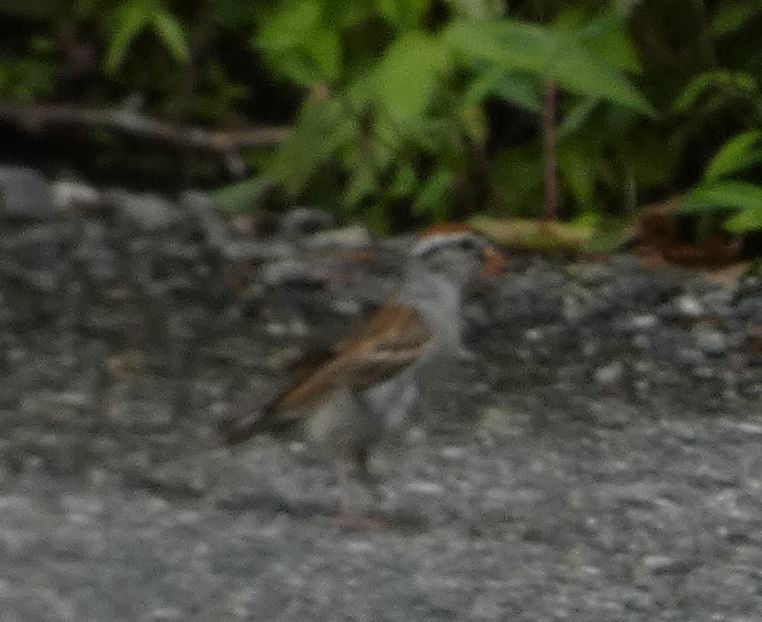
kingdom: Animalia
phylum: Chordata
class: Aves
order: Passeriformes
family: Passerellidae
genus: Spizella
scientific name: Spizella passerina
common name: Chipping sparrow
